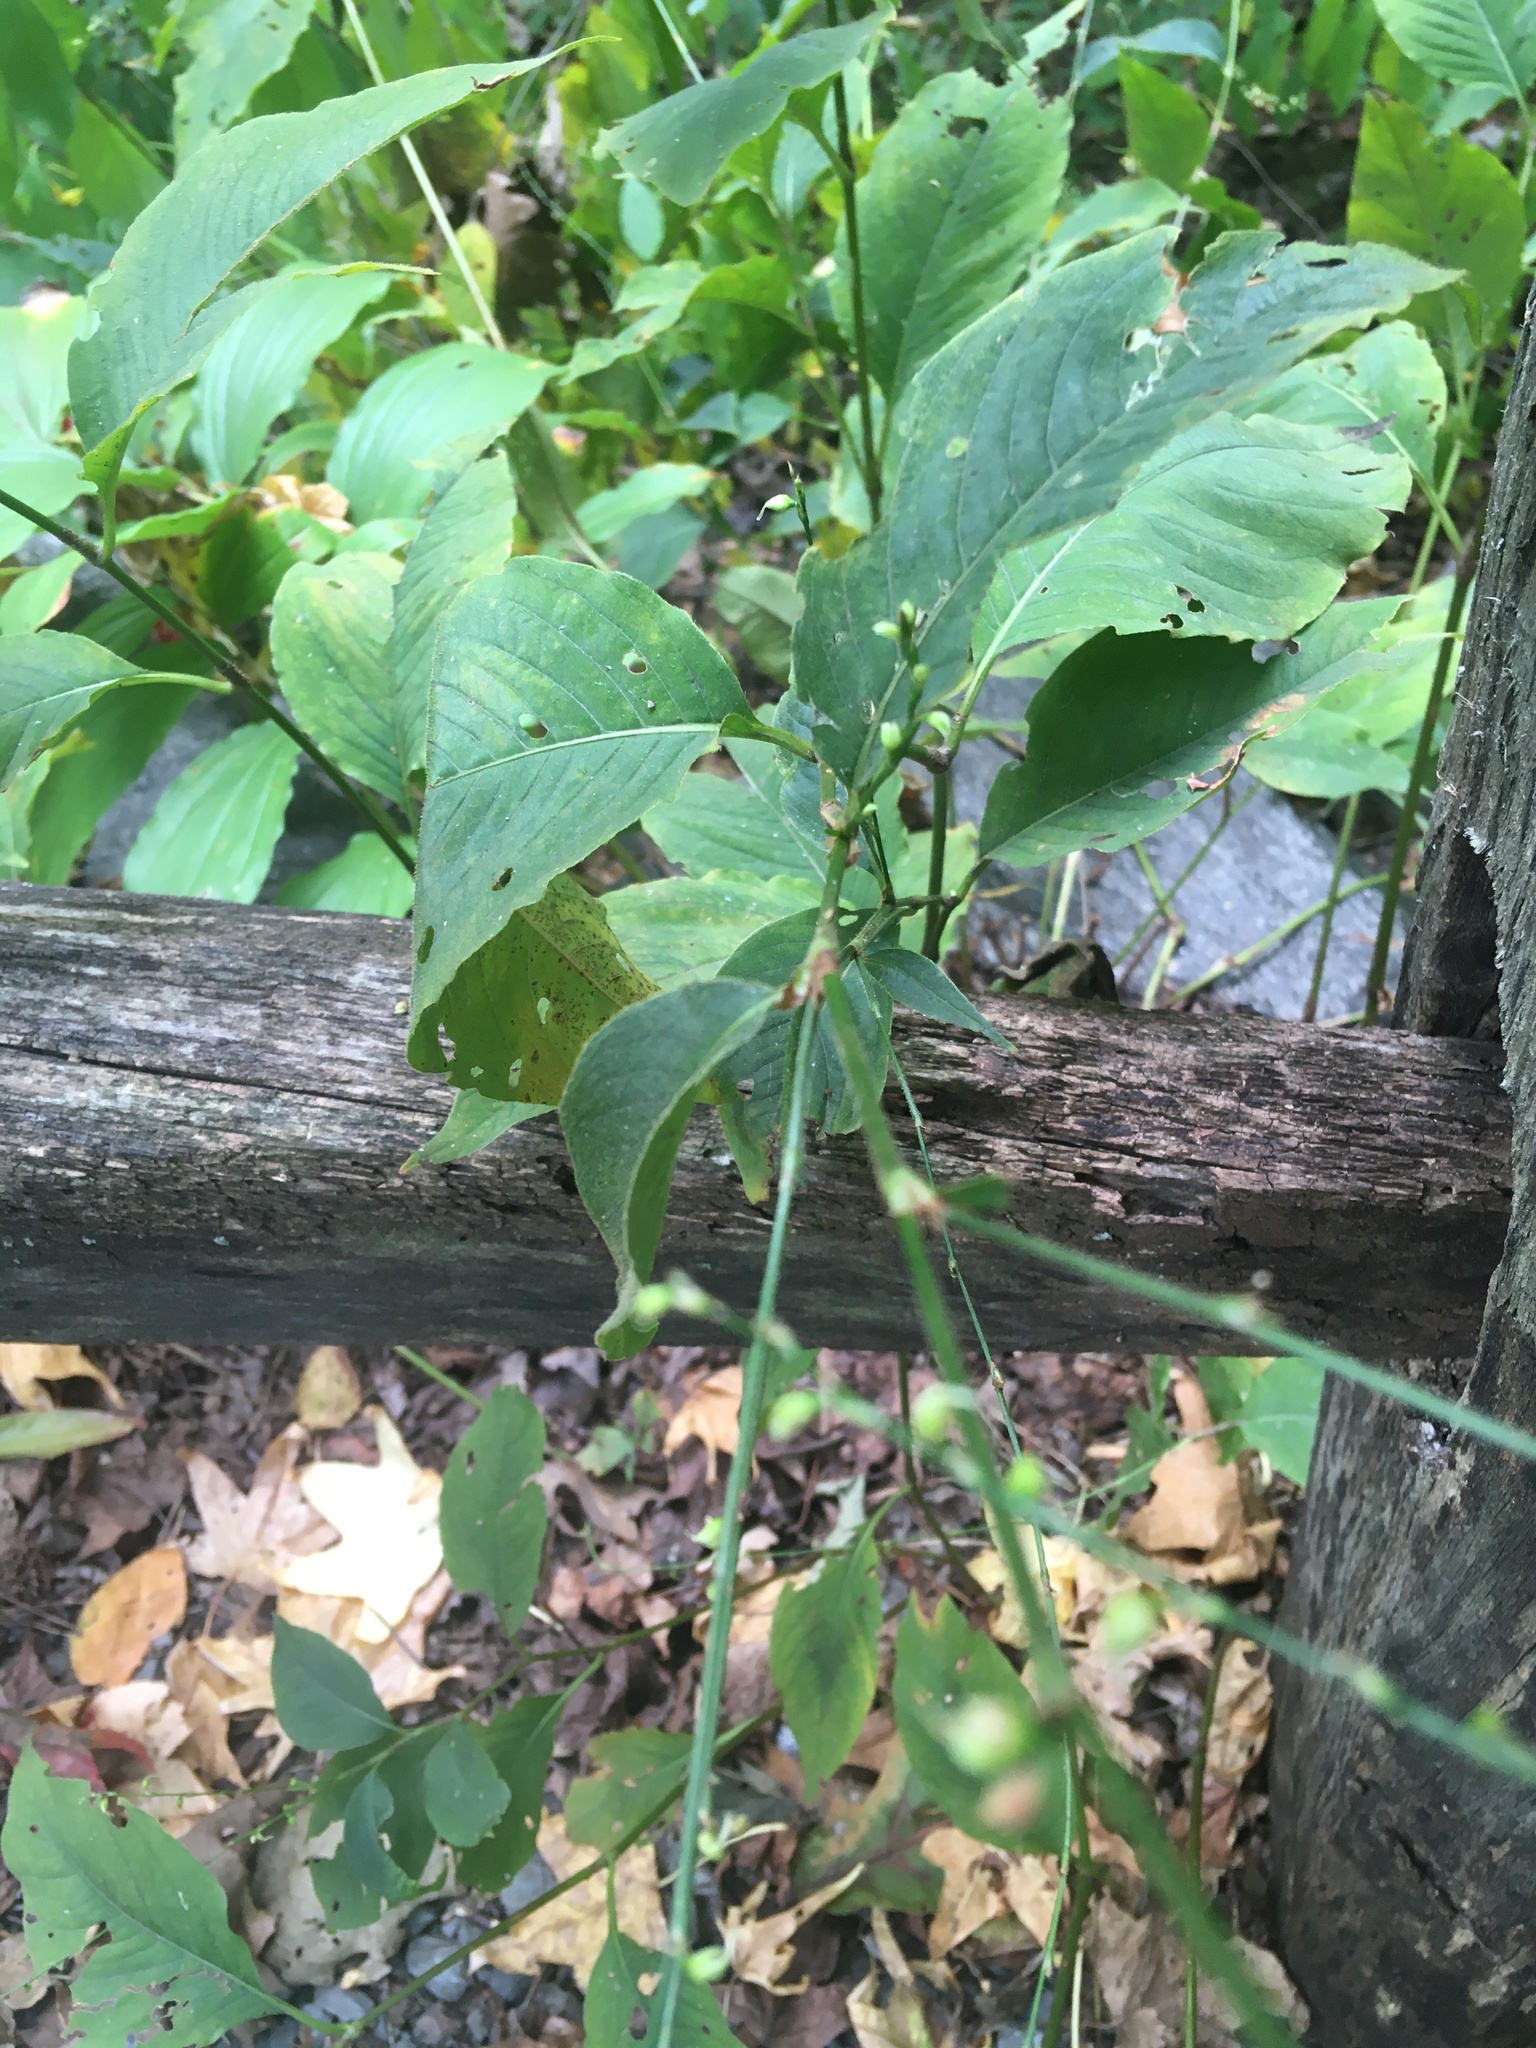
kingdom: Plantae
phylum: Tracheophyta
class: Magnoliopsida
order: Caryophyllales
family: Polygonaceae
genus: Persicaria
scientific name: Persicaria virginiana
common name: Jumpseed
